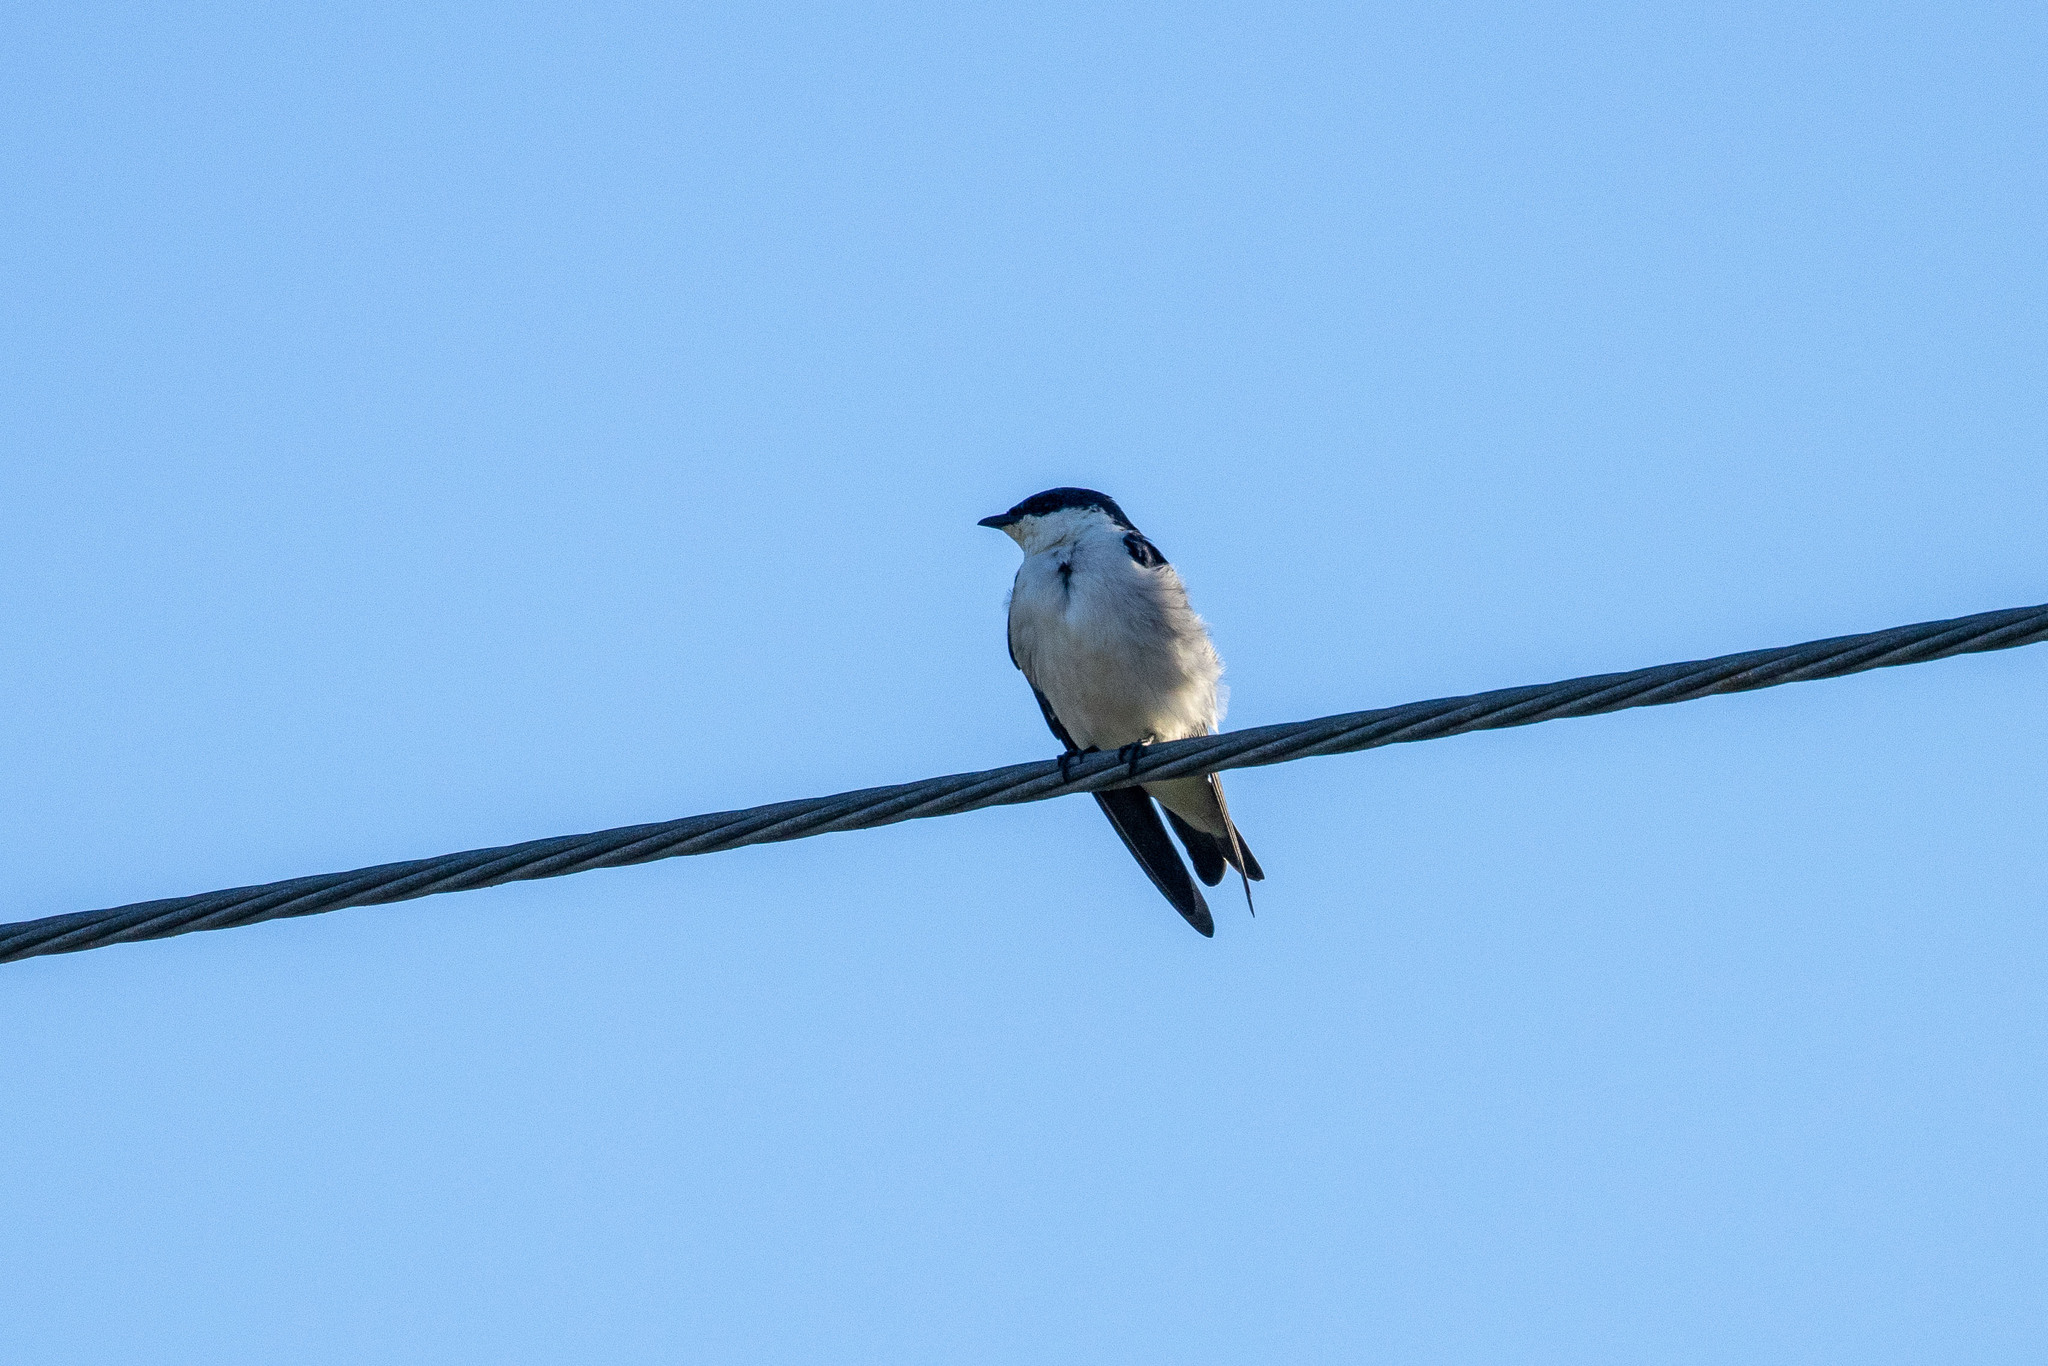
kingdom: Animalia
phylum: Chordata
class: Aves
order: Passeriformes
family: Hirundinidae
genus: Tachycineta
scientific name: Tachycineta albiventer
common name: White-winged swallow
